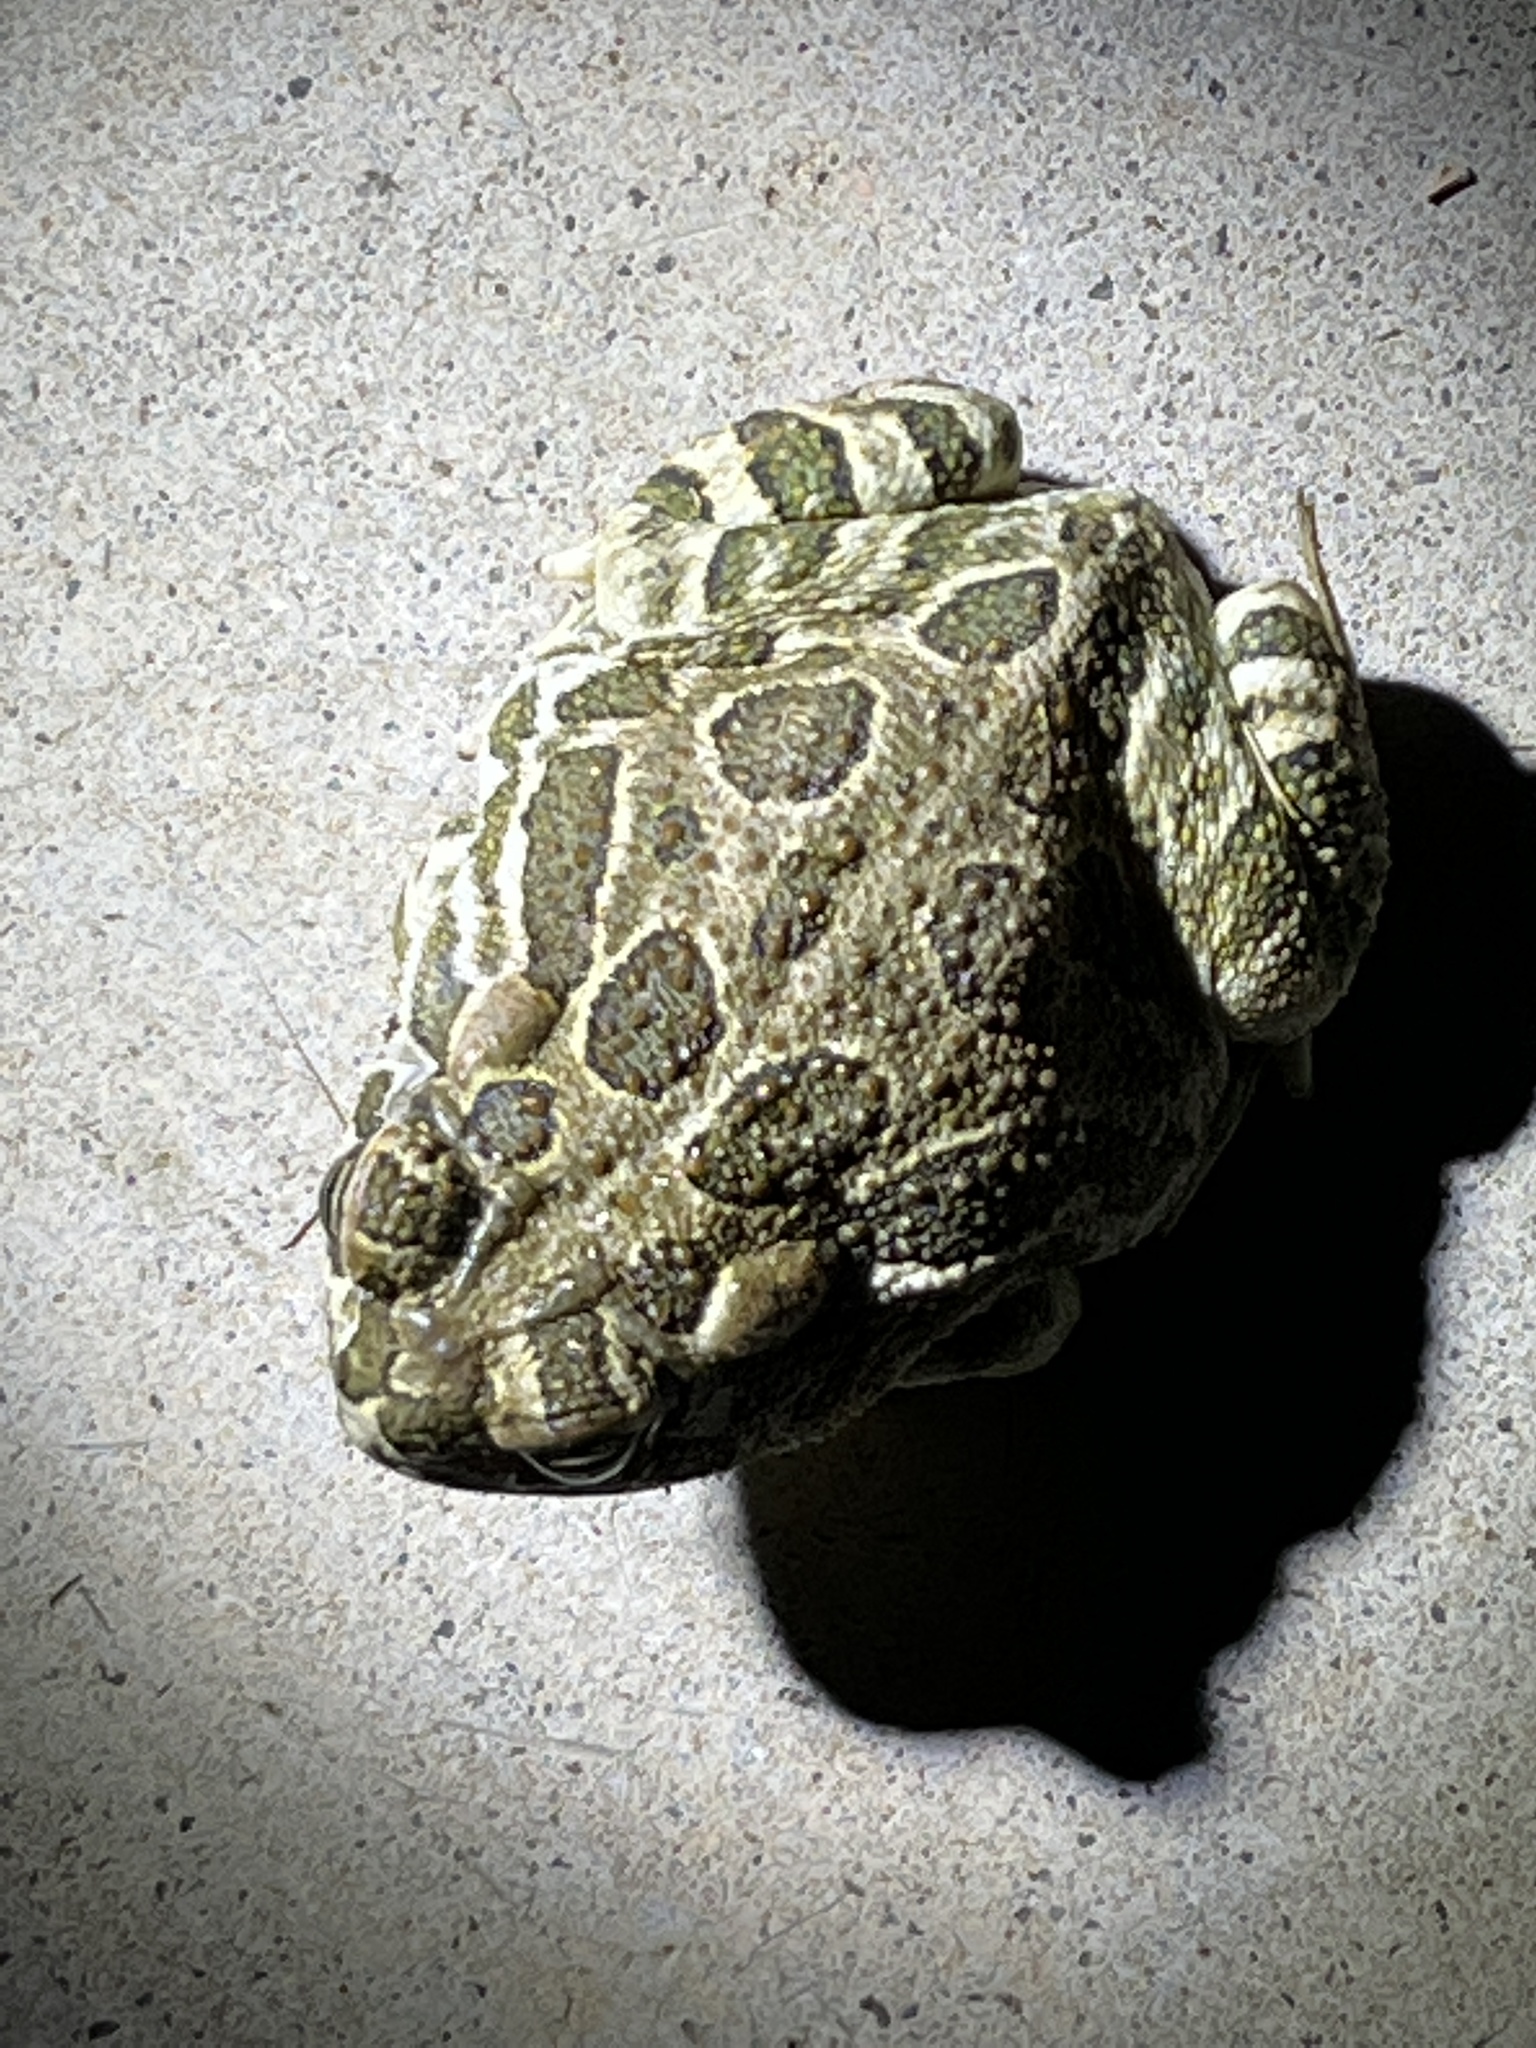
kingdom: Animalia
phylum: Chordata
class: Amphibia
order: Anura
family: Bufonidae
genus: Anaxyrus
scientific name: Anaxyrus cognatus
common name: Great plains toad
